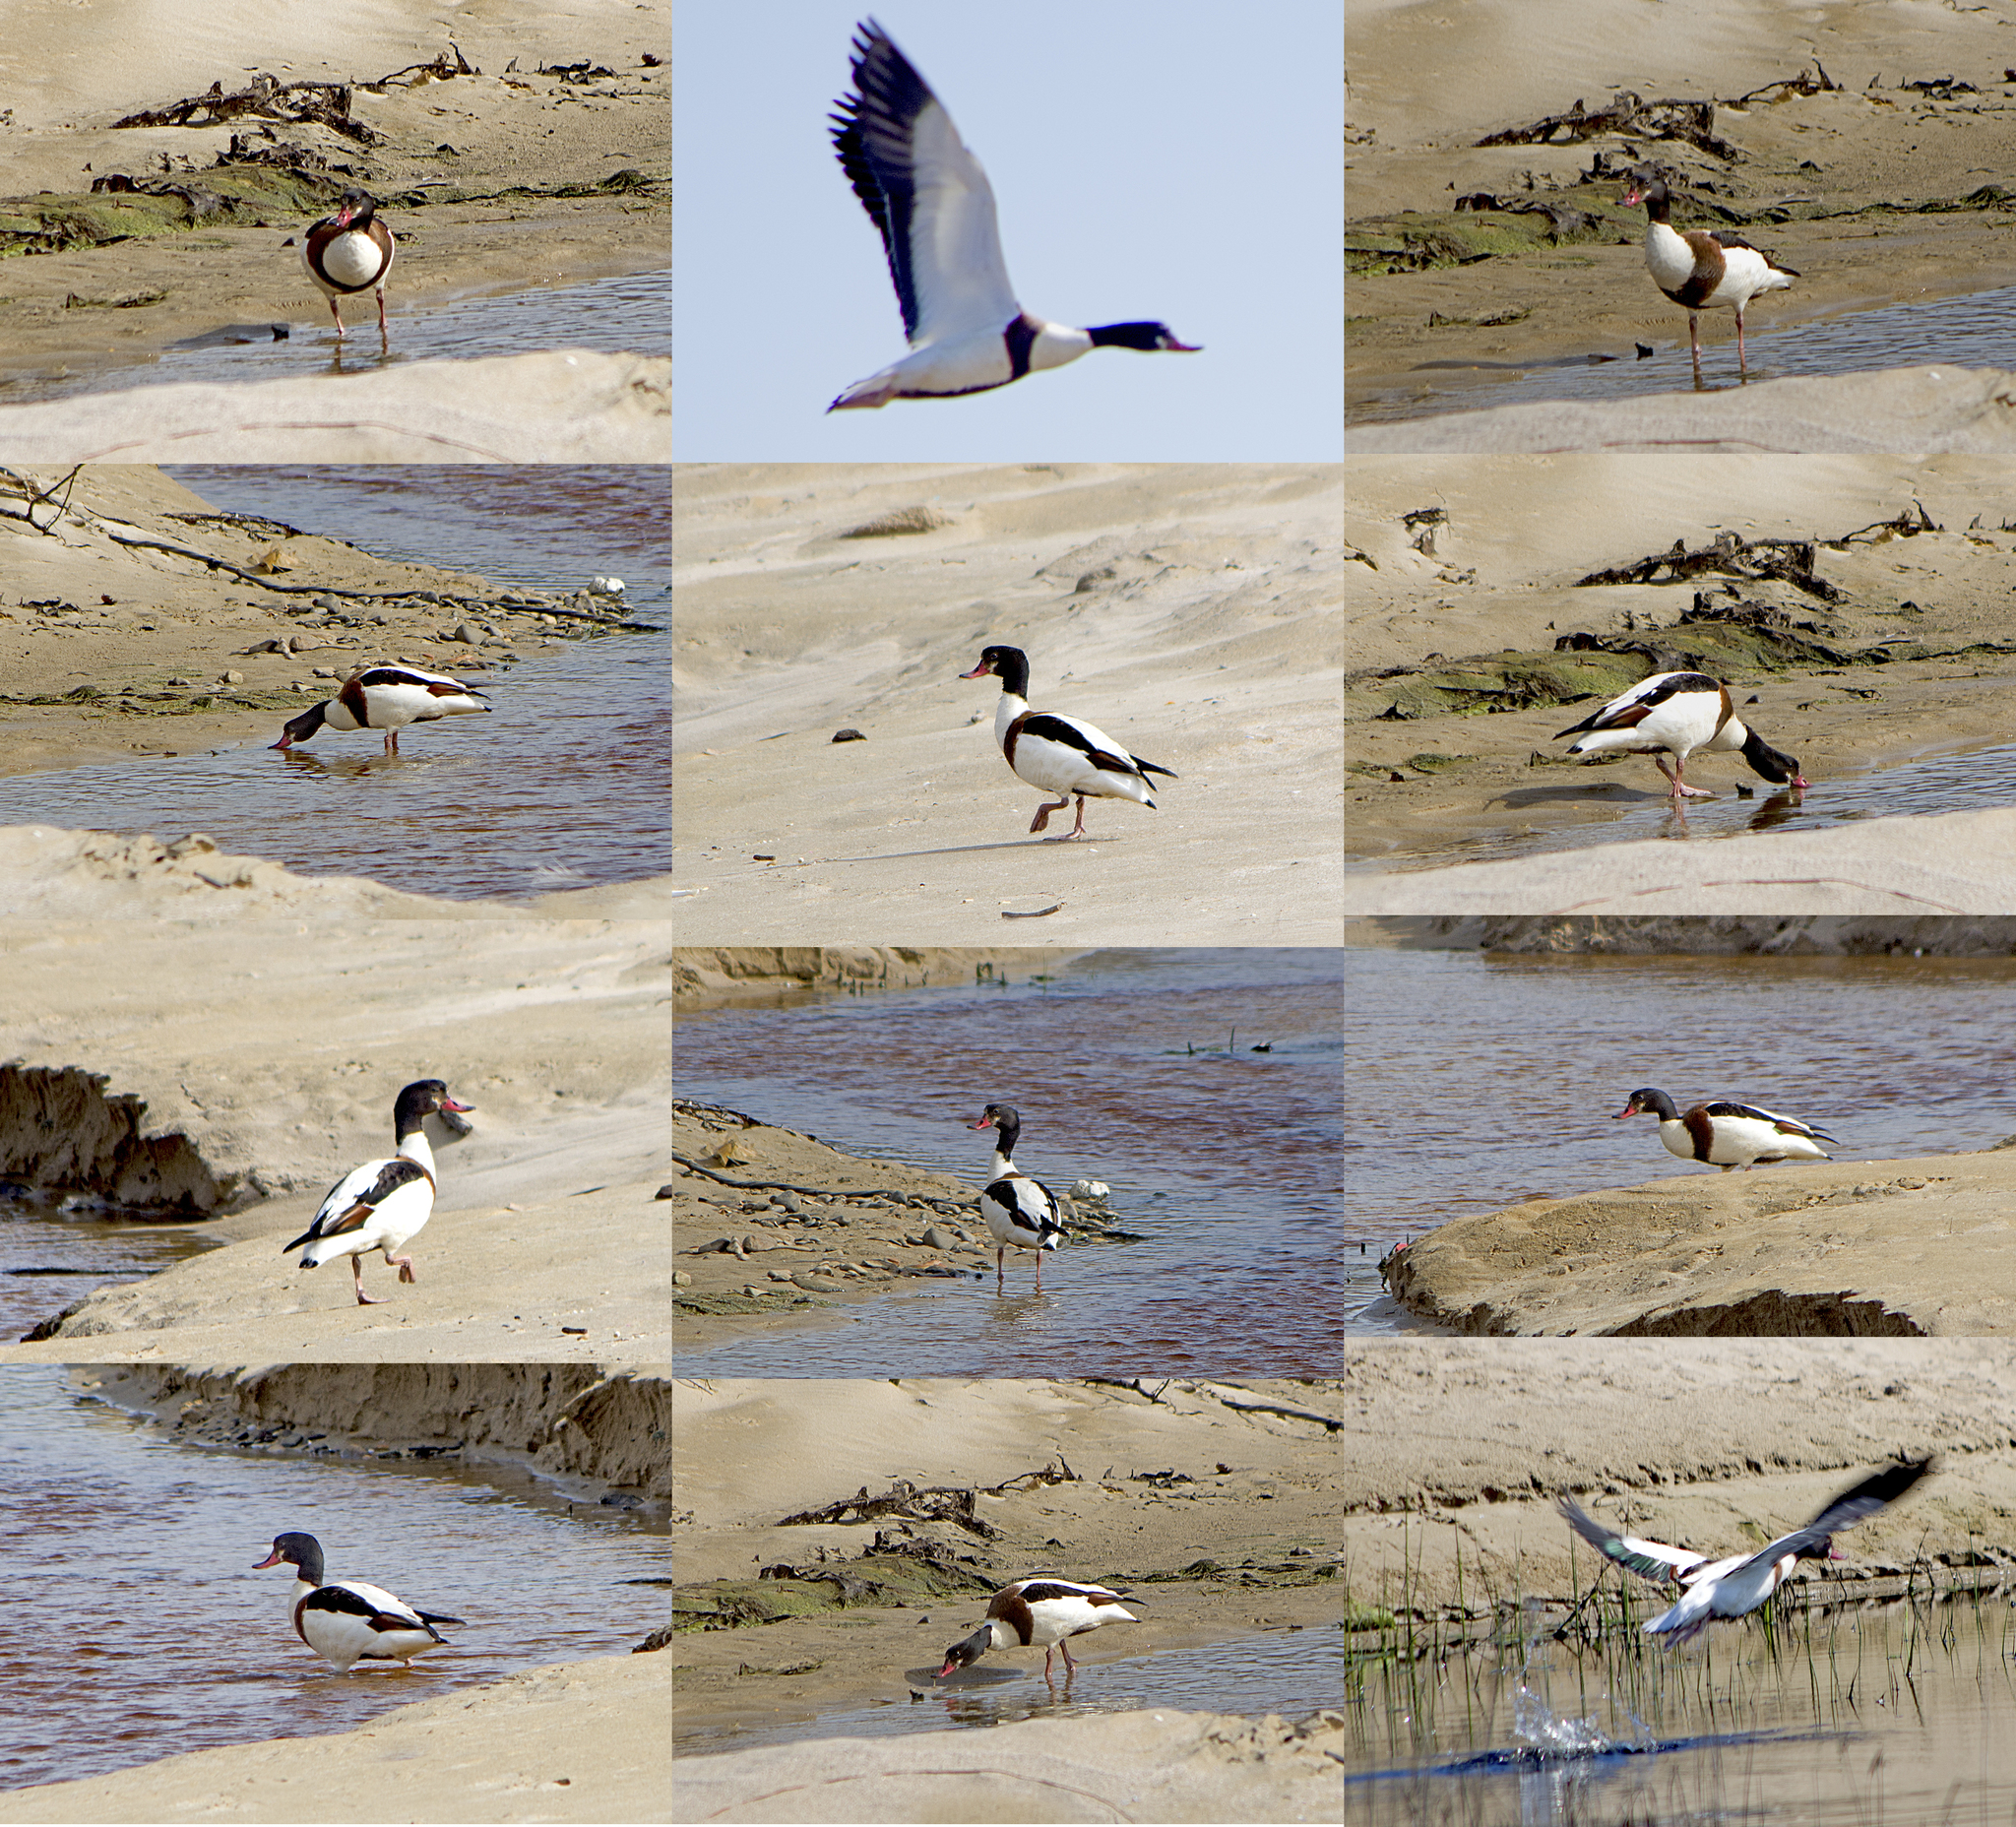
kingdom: Animalia
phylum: Chordata
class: Aves
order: Anseriformes
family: Anatidae
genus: Tadorna
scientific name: Tadorna tadorna
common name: Common shelduck
